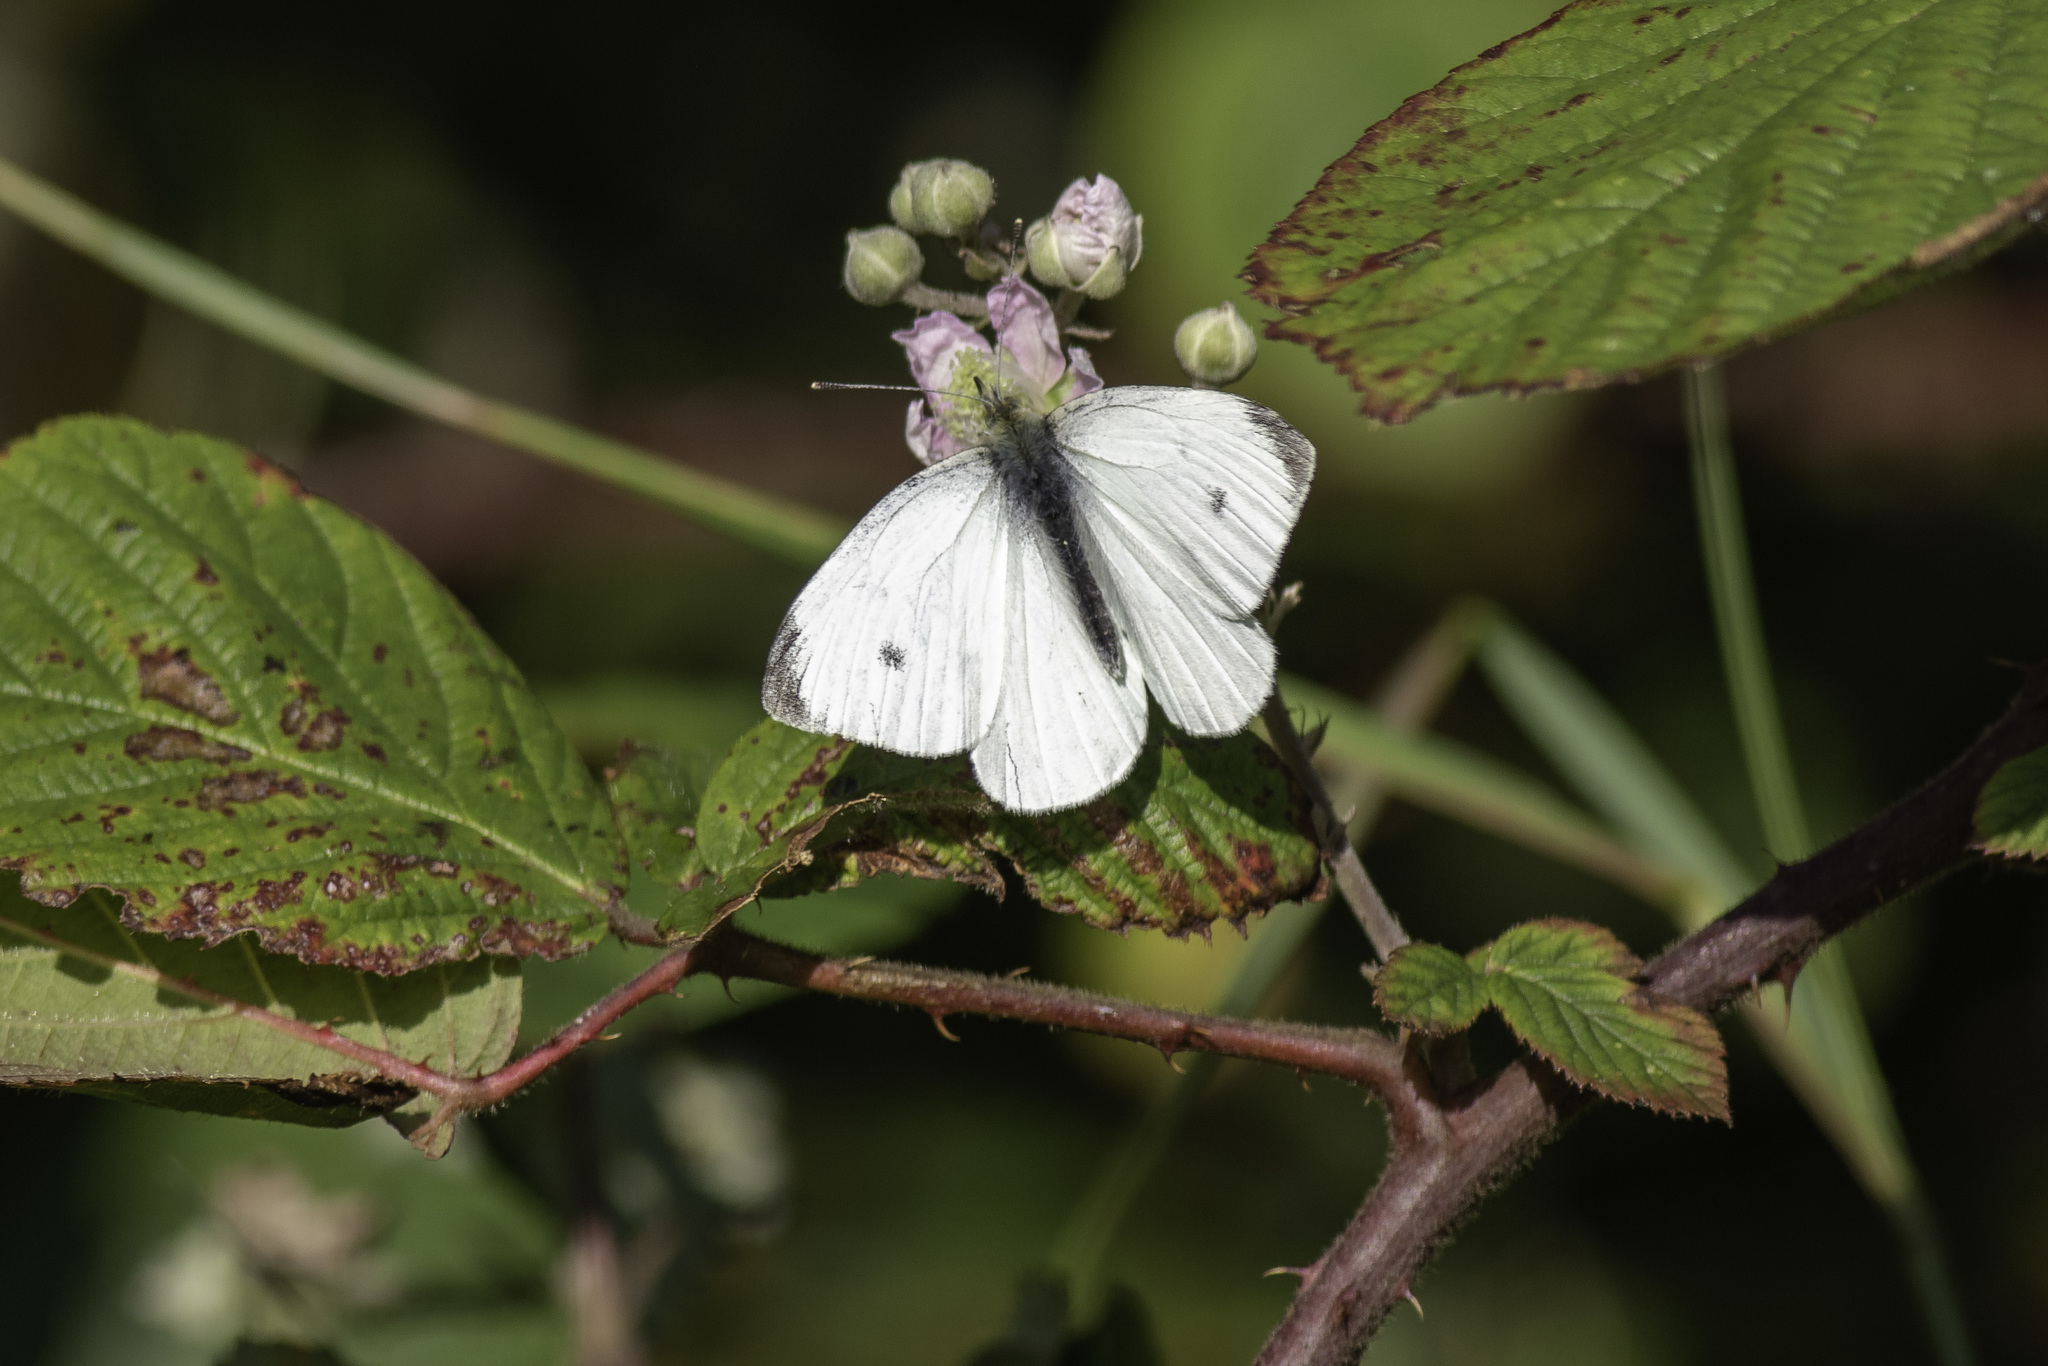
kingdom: Animalia
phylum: Arthropoda
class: Insecta
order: Lepidoptera
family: Pieridae
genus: Pieris
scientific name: Pieris rapae
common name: Small white
